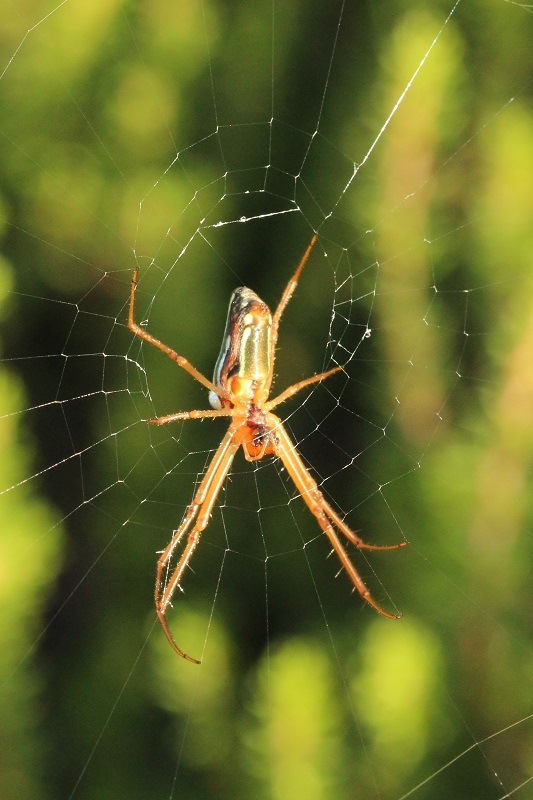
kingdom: Animalia
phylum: Arthropoda
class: Arachnida
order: Araneae
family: Tetragnathidae
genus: Leucauge
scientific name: Leucauge festiva
